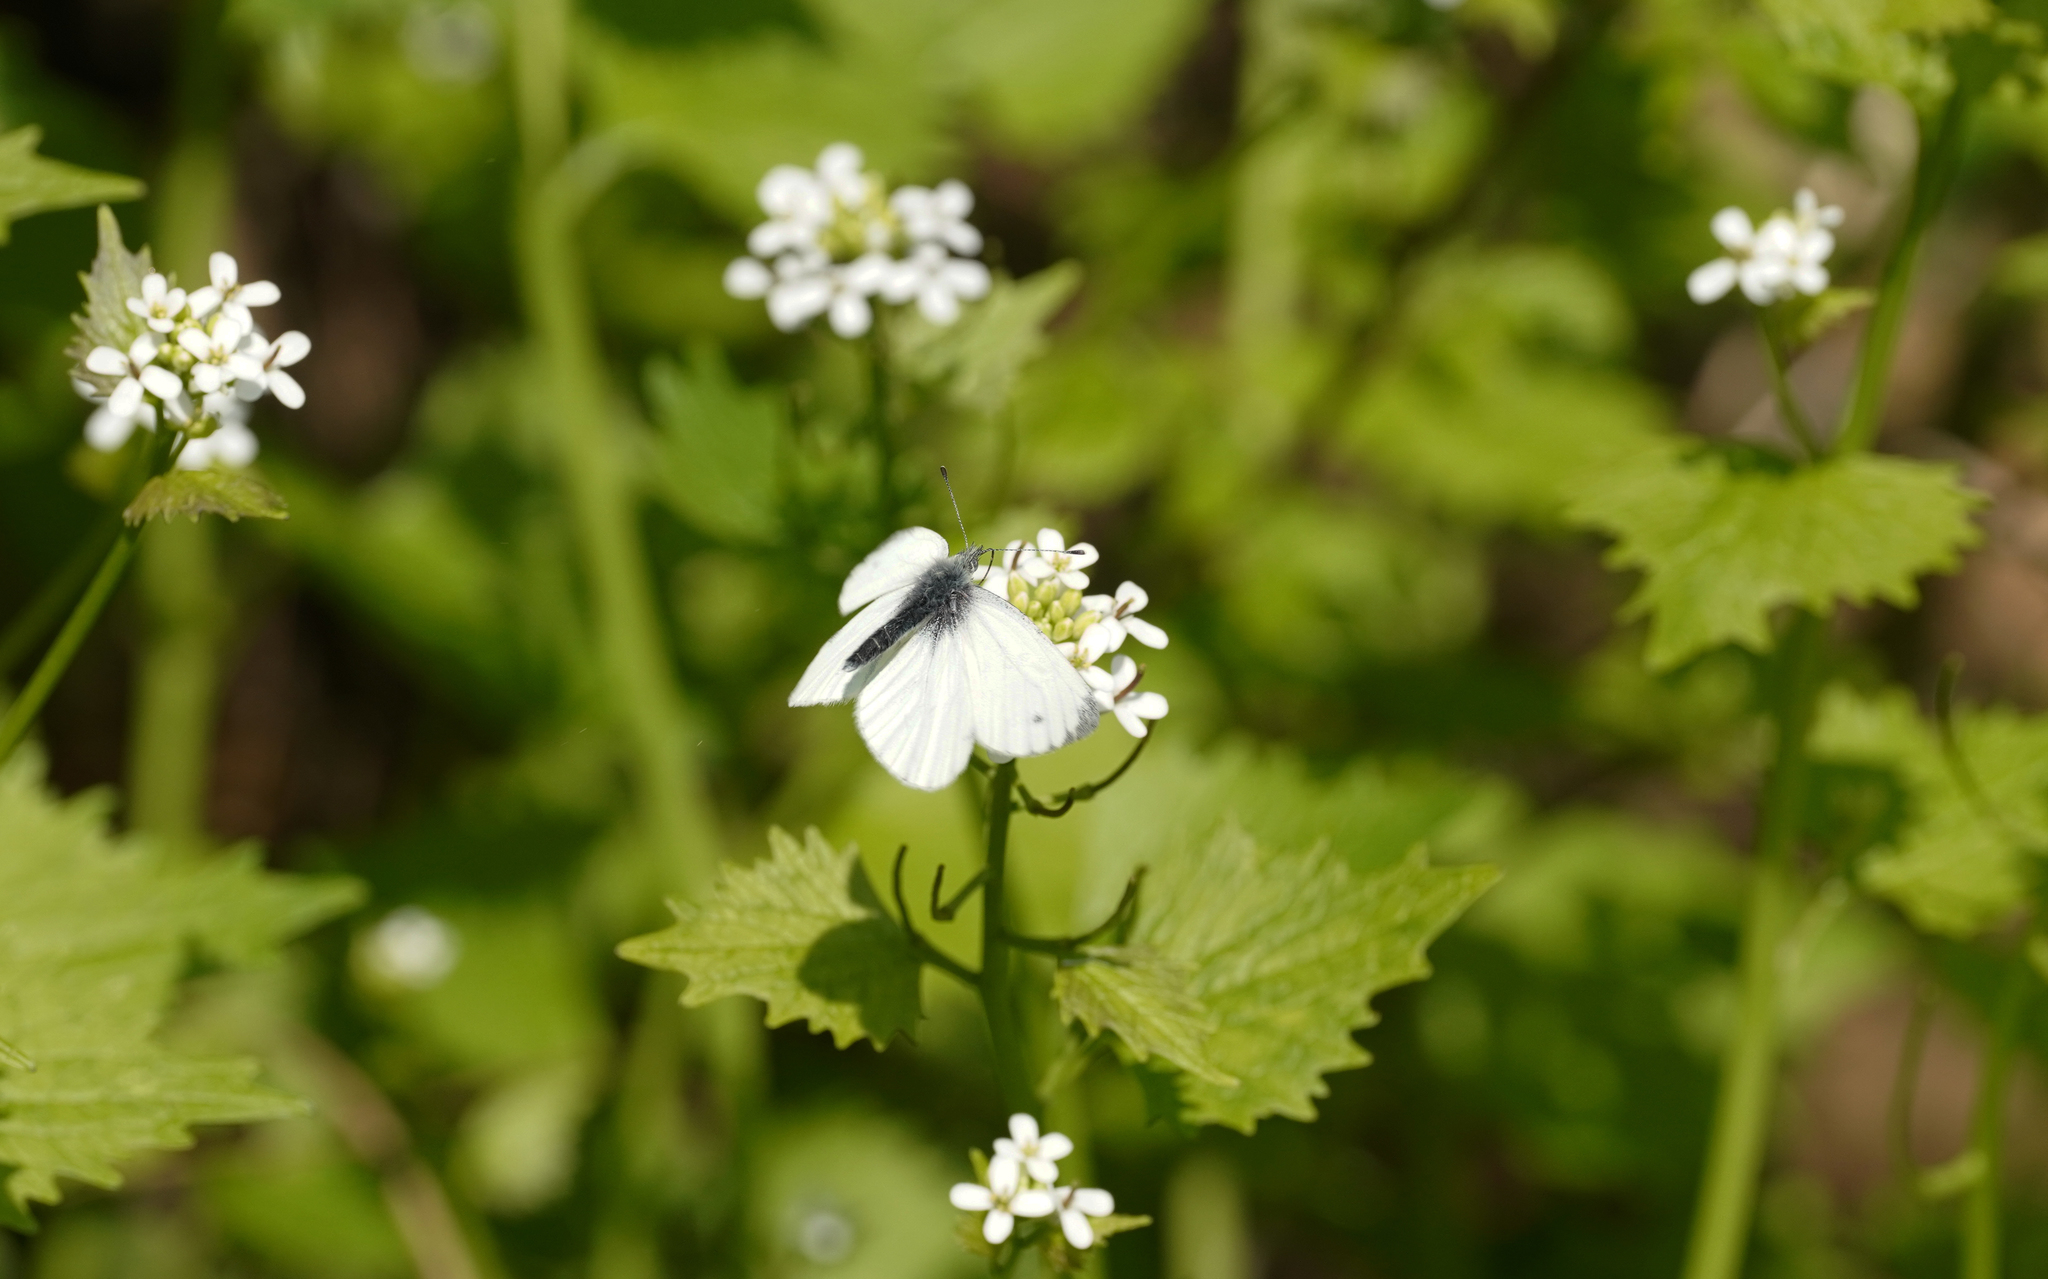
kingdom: Animalia
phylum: Arthropoda
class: Insecta
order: Lepidoptera
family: Pieridae
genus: Pieris
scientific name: Pieris napi
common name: Green-veined white
